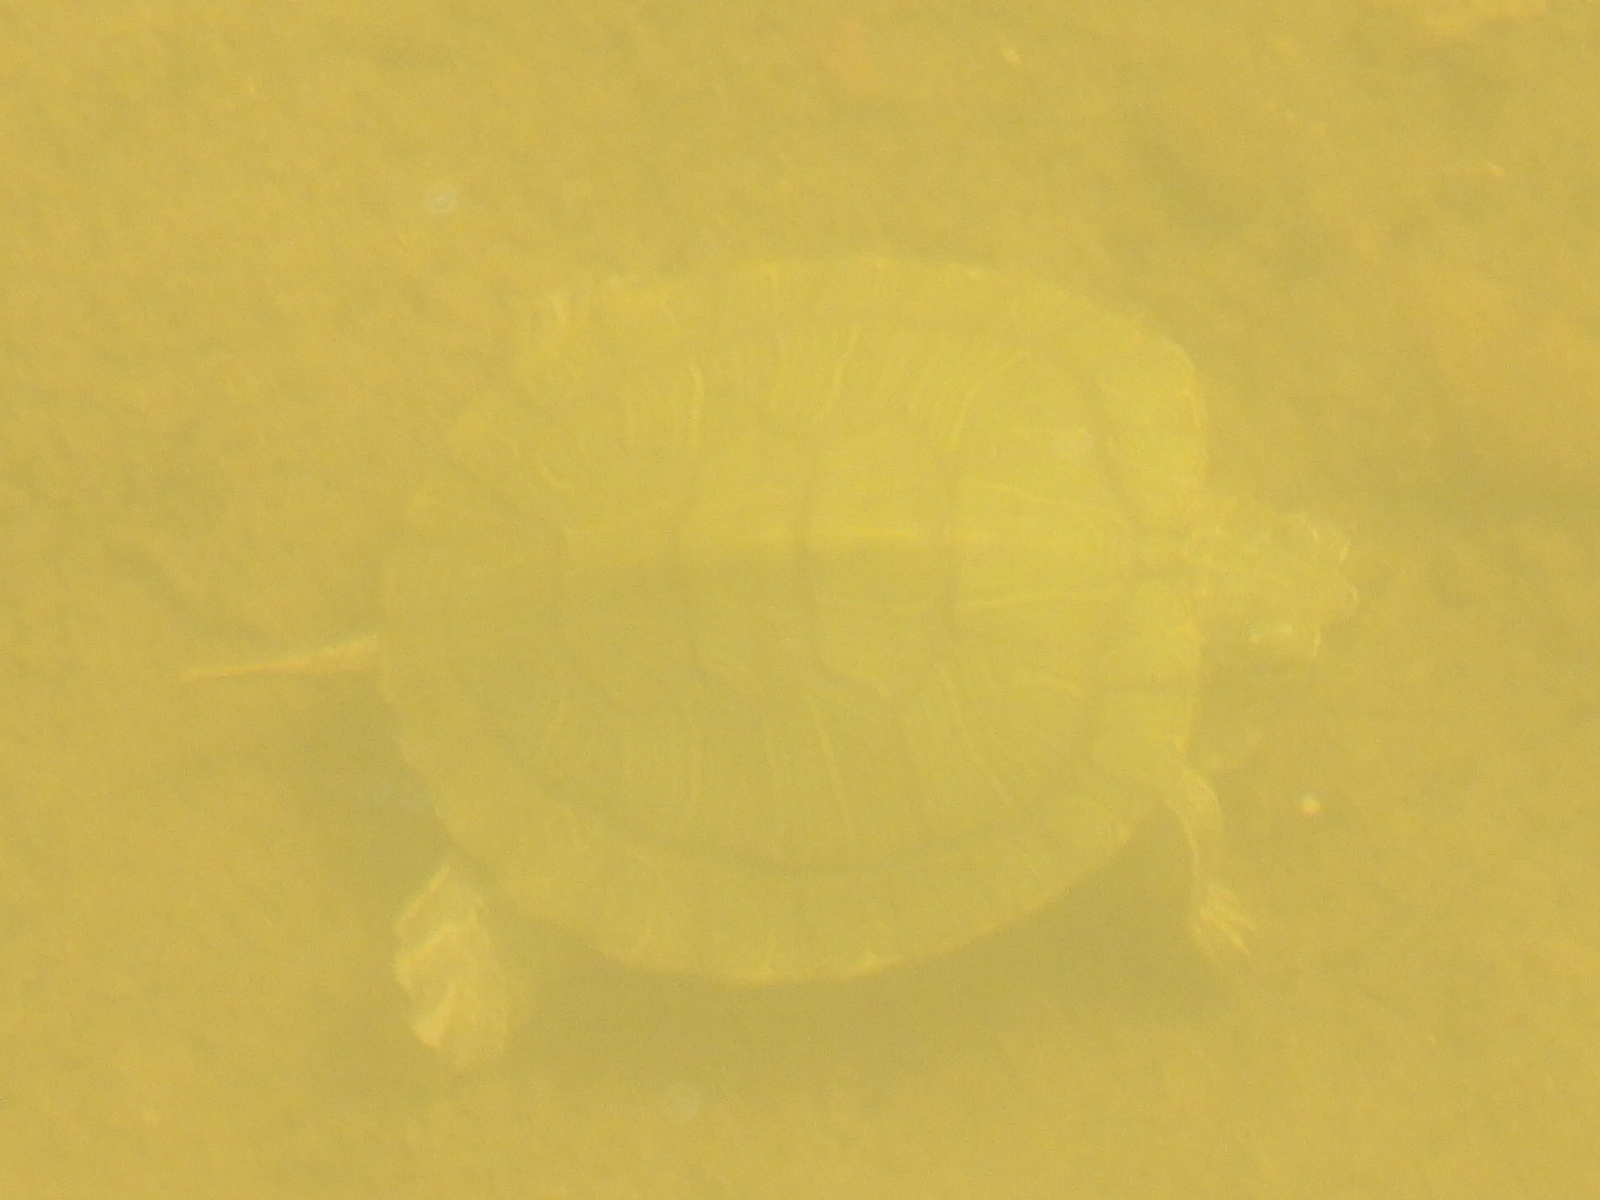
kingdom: Animalia
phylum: Chordata
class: Testudines
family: Emydidae
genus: Trachemys
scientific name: Trachemys scripta
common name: Slider
